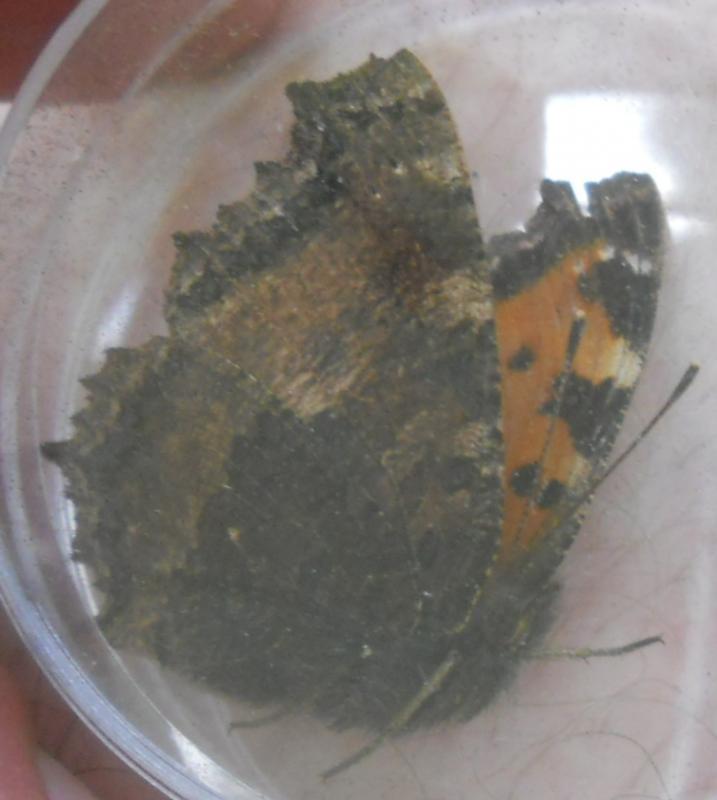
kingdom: Animalia
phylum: Arthropoda
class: Insecta
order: Lepidoptera
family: Nymphalidae
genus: Nymphalis
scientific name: Nymphalis xanthomelas
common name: Scarce tortoiseshell
